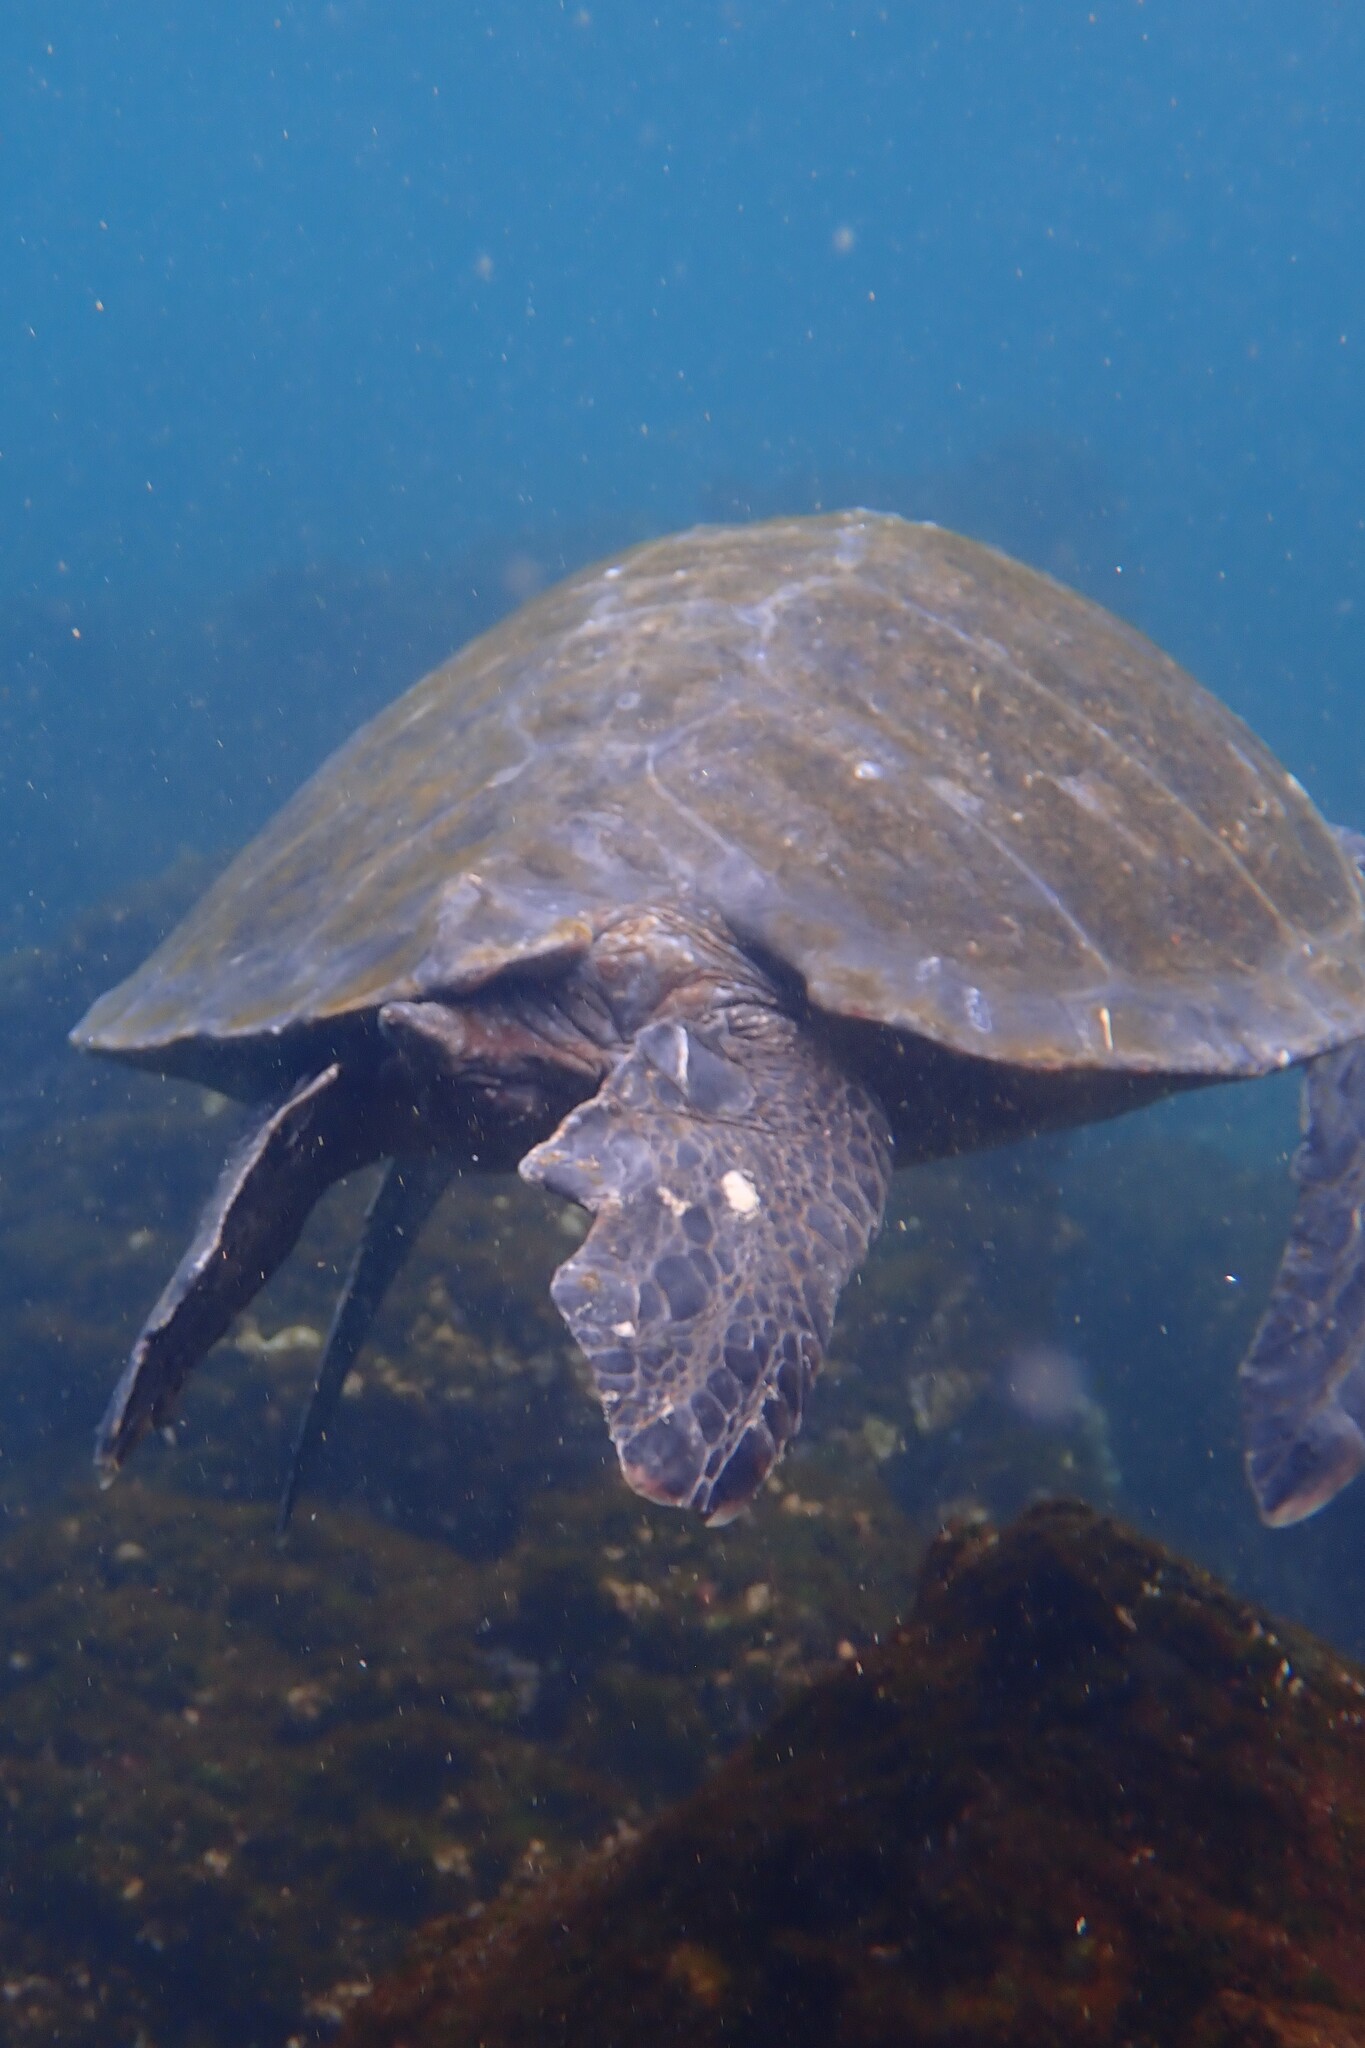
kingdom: Animalia
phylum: Chordata
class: Testudines
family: Cheloniidae
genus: Chelonia
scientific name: Chelonia mydas
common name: Green turtle
